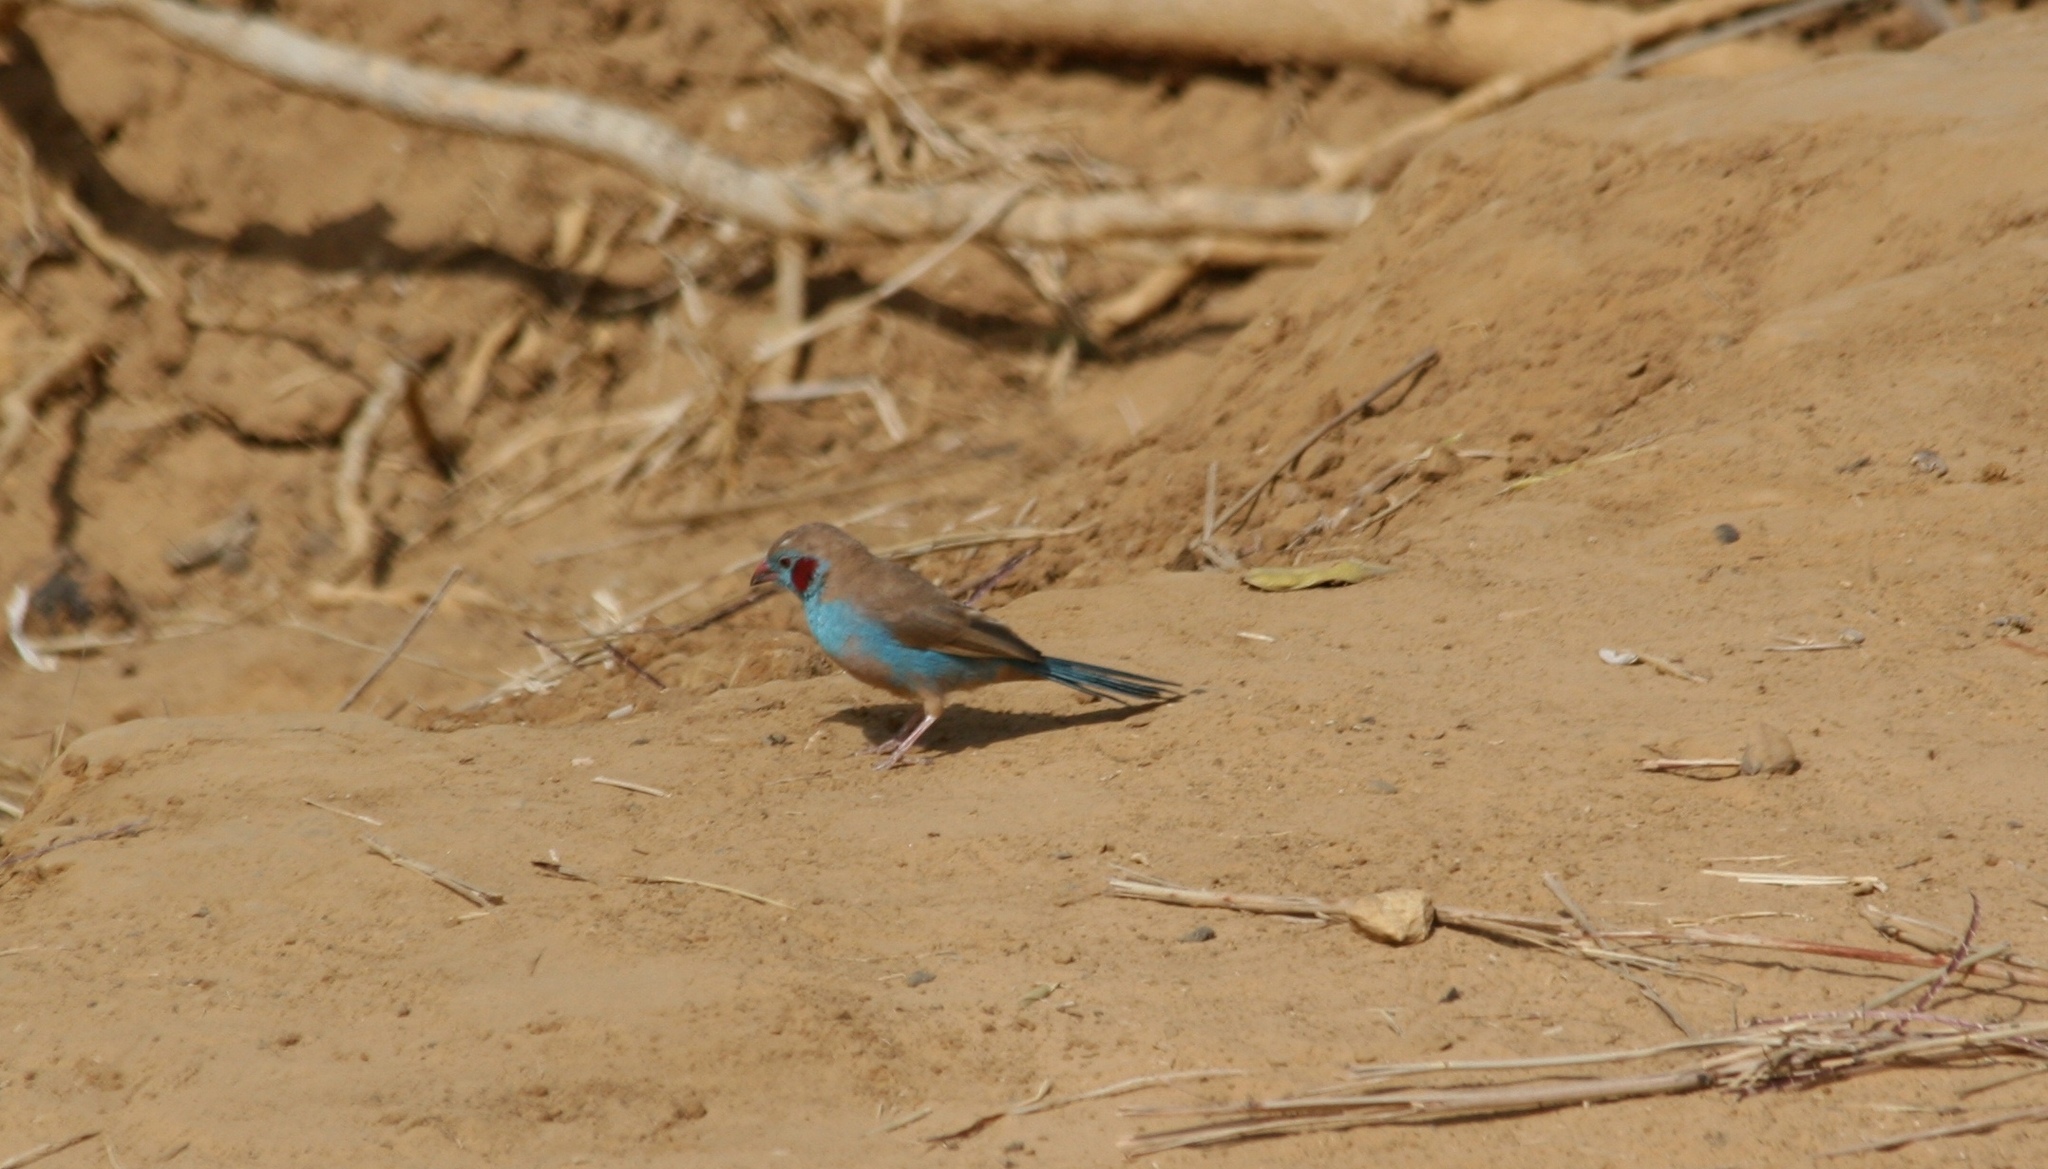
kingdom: Animalia
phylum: Chordata
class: Aves
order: Passeriformes
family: Estrildidae
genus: Uraeginthus
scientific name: Uraeginthus bengalus
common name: Red-cheeked cordon-bleu
